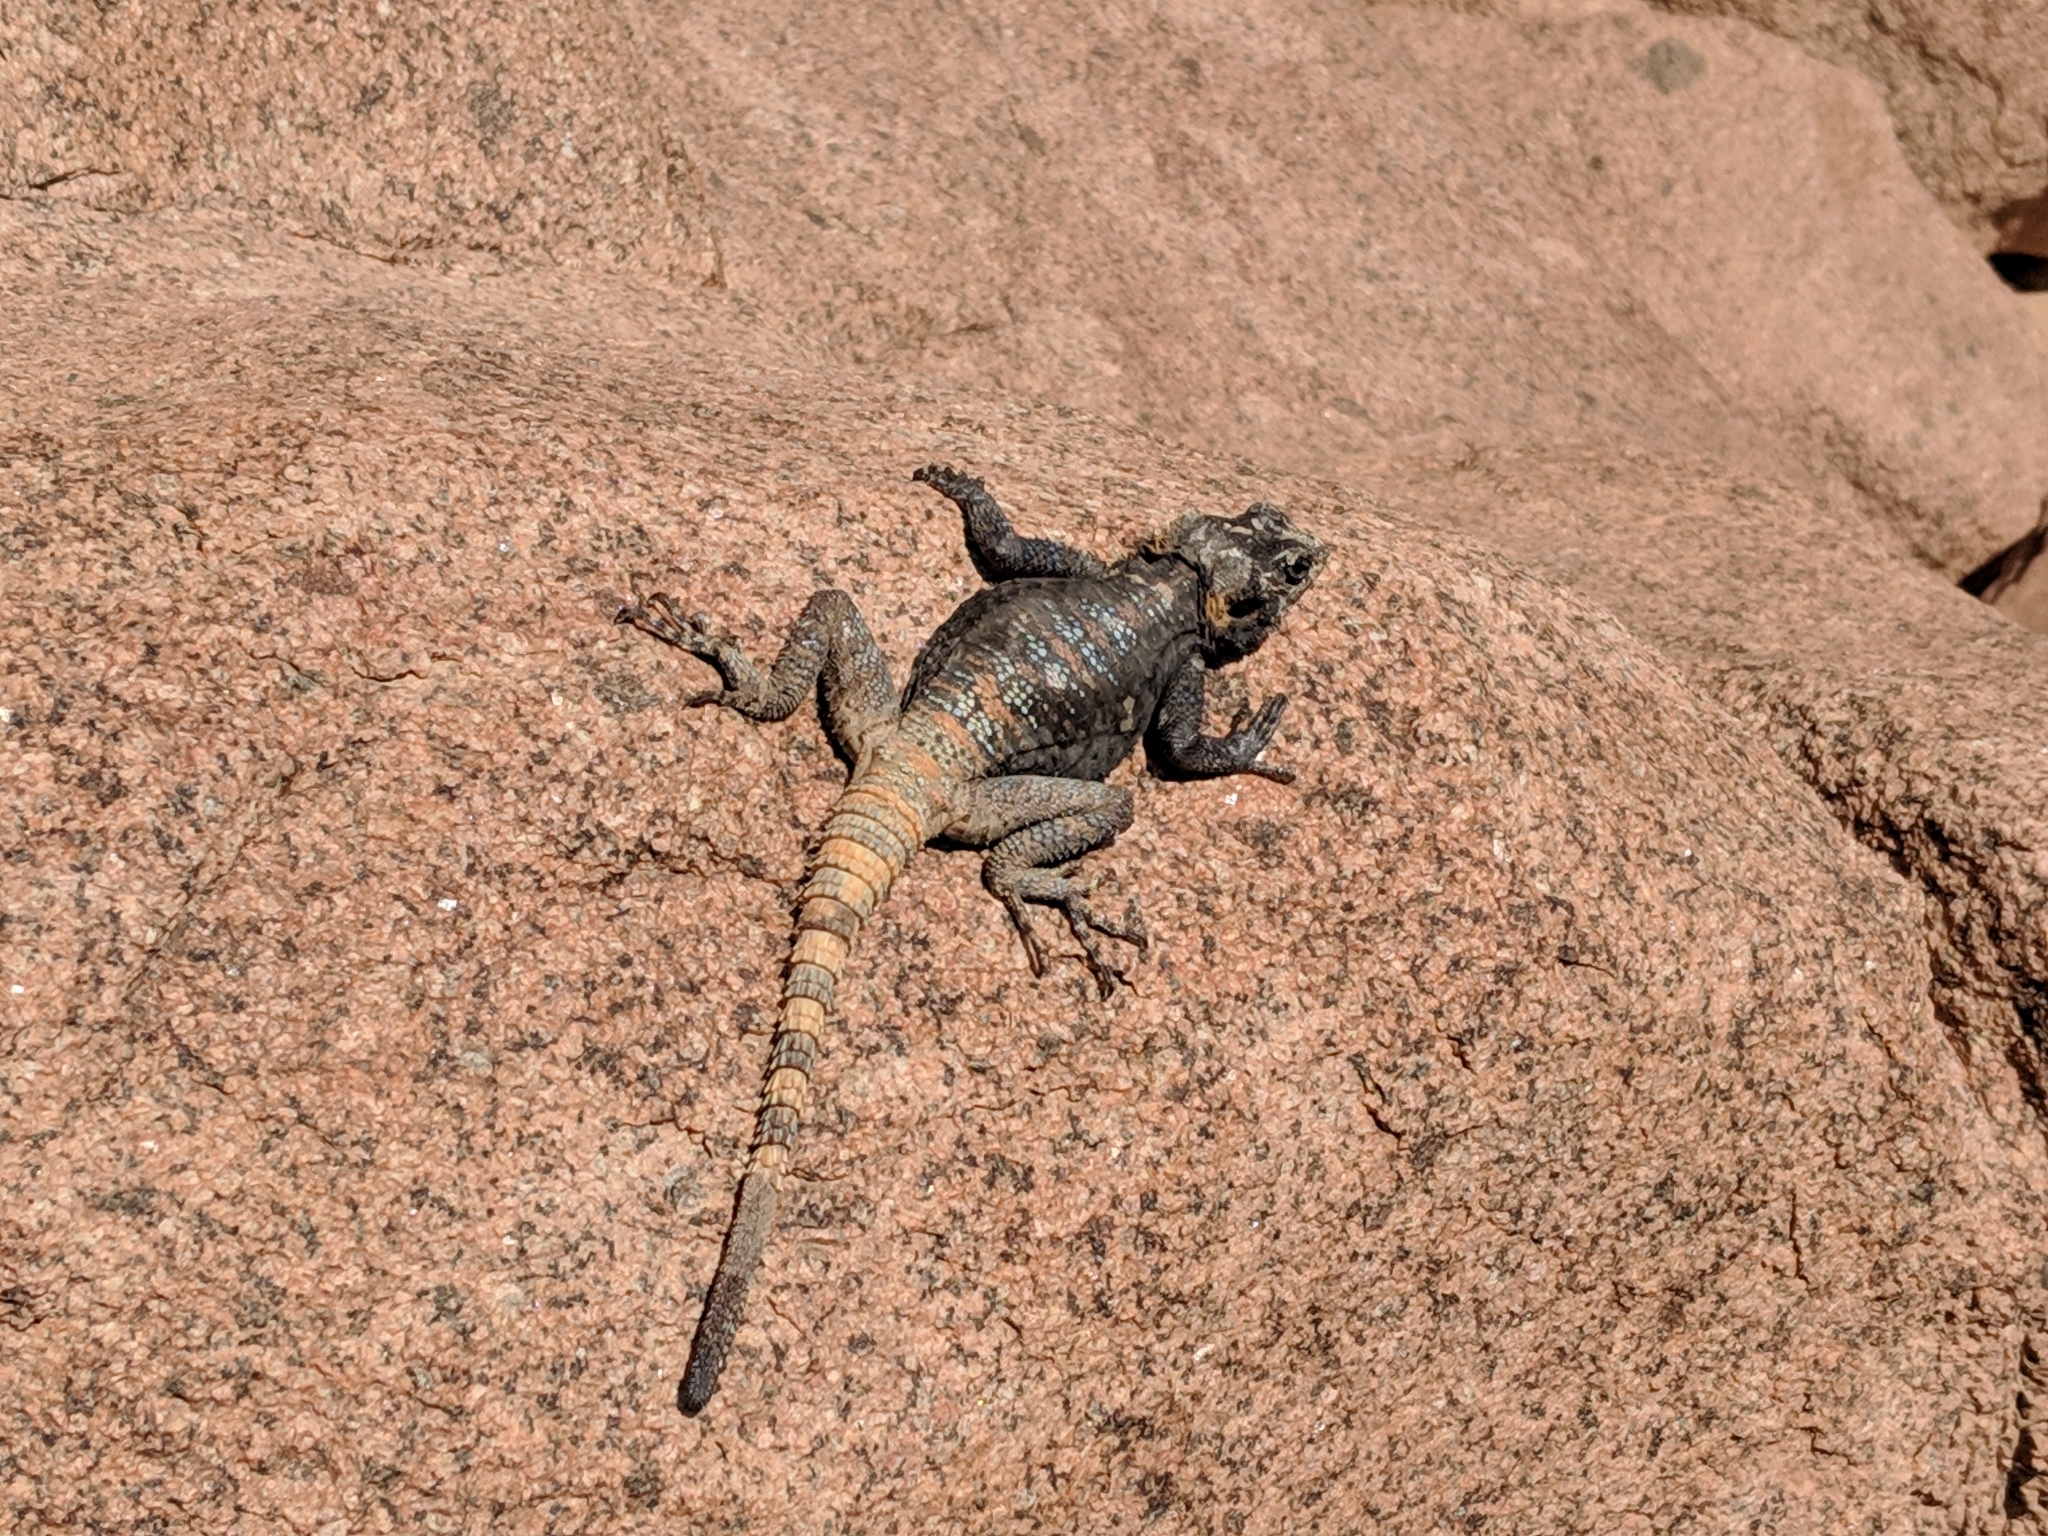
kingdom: Animalia
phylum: Chordata
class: Squamata
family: Agamidae
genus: Laudakia
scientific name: Laudakia vulgaris
